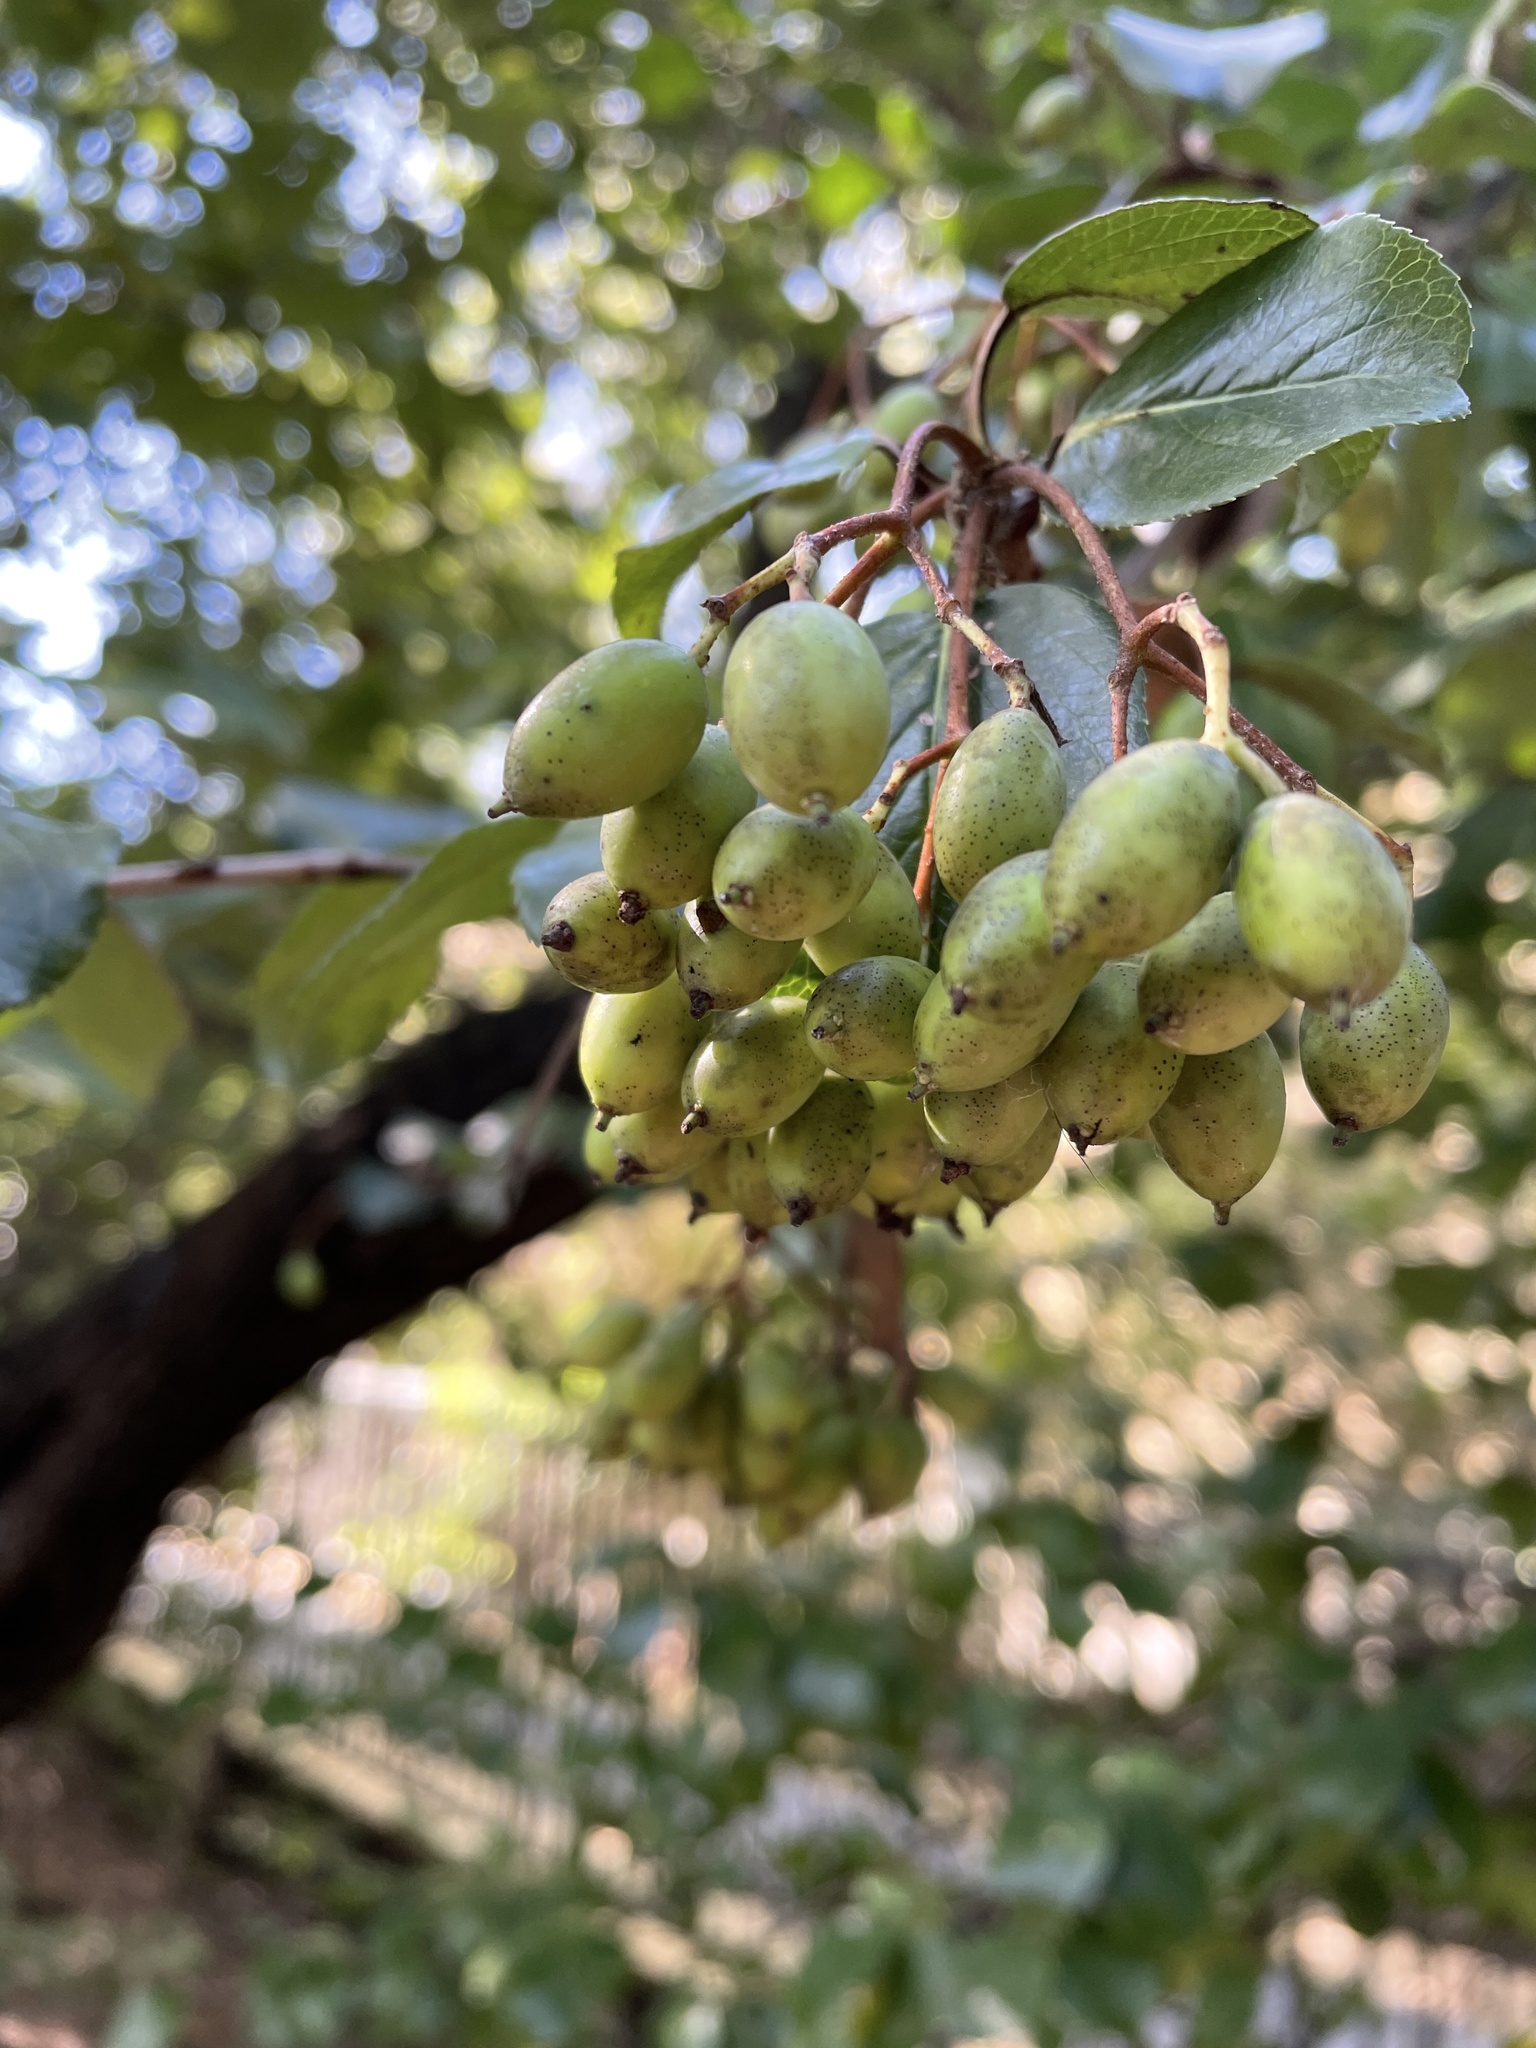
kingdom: Plantae
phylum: Tracheophyta
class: Magnoliopsida
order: Dipsacales
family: Viburnaceae
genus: Viburnum
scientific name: Viburnum rufidulum
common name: Blue haw
